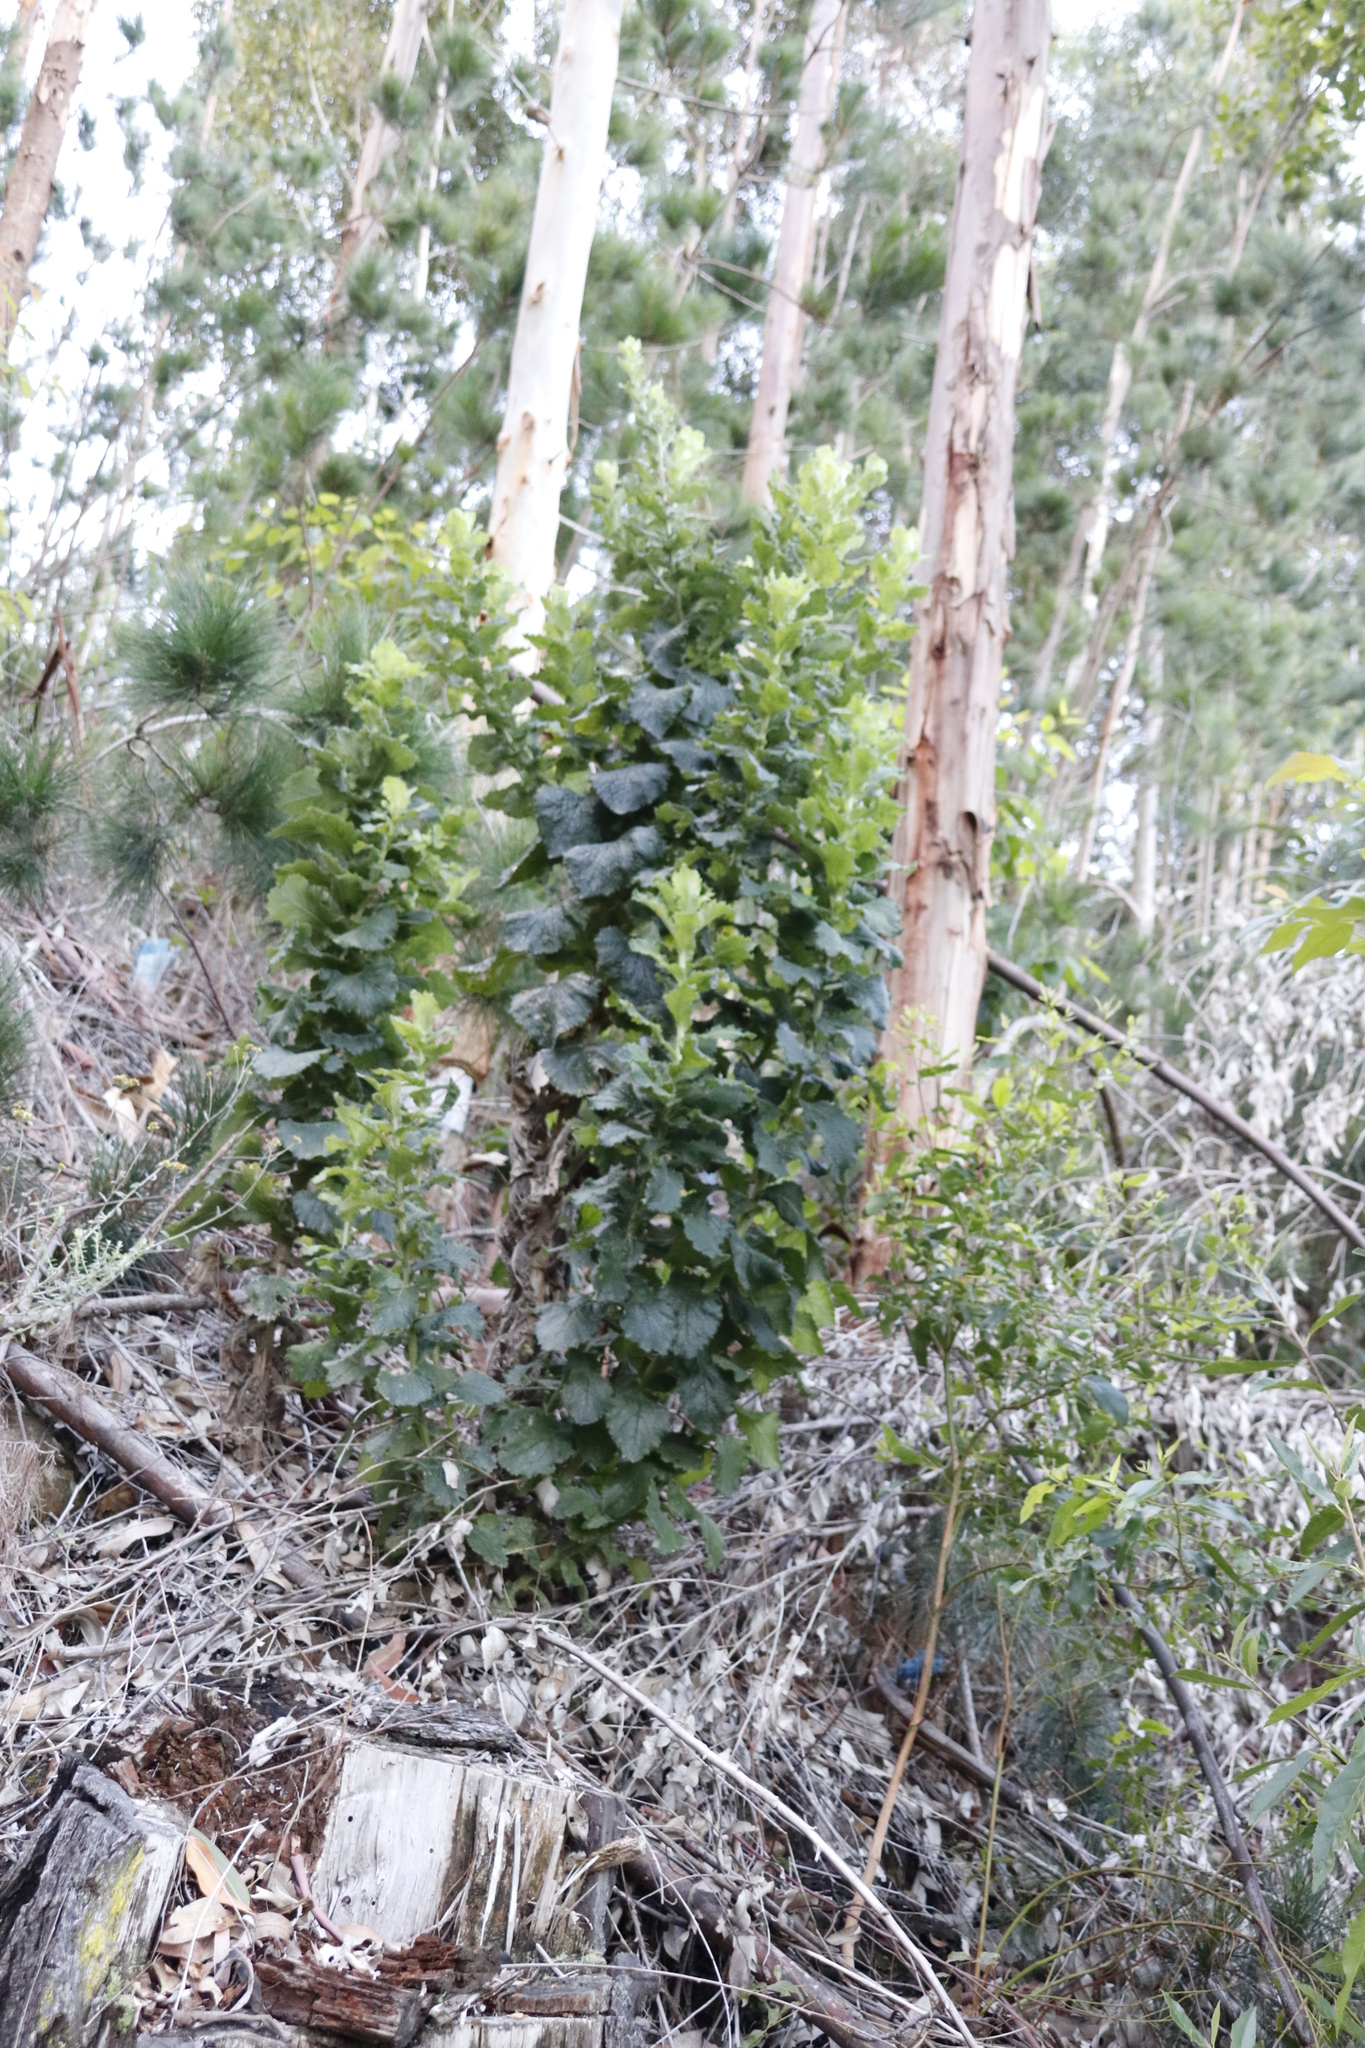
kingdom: Plantae
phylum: Tracheophyta
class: Magnoliopsida
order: Asterales
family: Asteraceae
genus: Senecio
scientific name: Senecio rigidus
